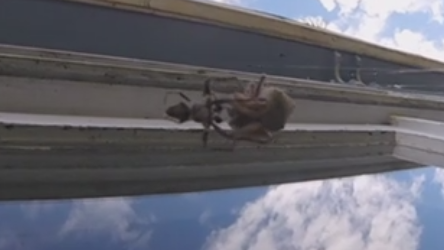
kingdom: Animalia
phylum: Arthropoda
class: Arachnida
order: Araneae
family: Araneidae
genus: Eriophora
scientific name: Eriophora pustulosa
